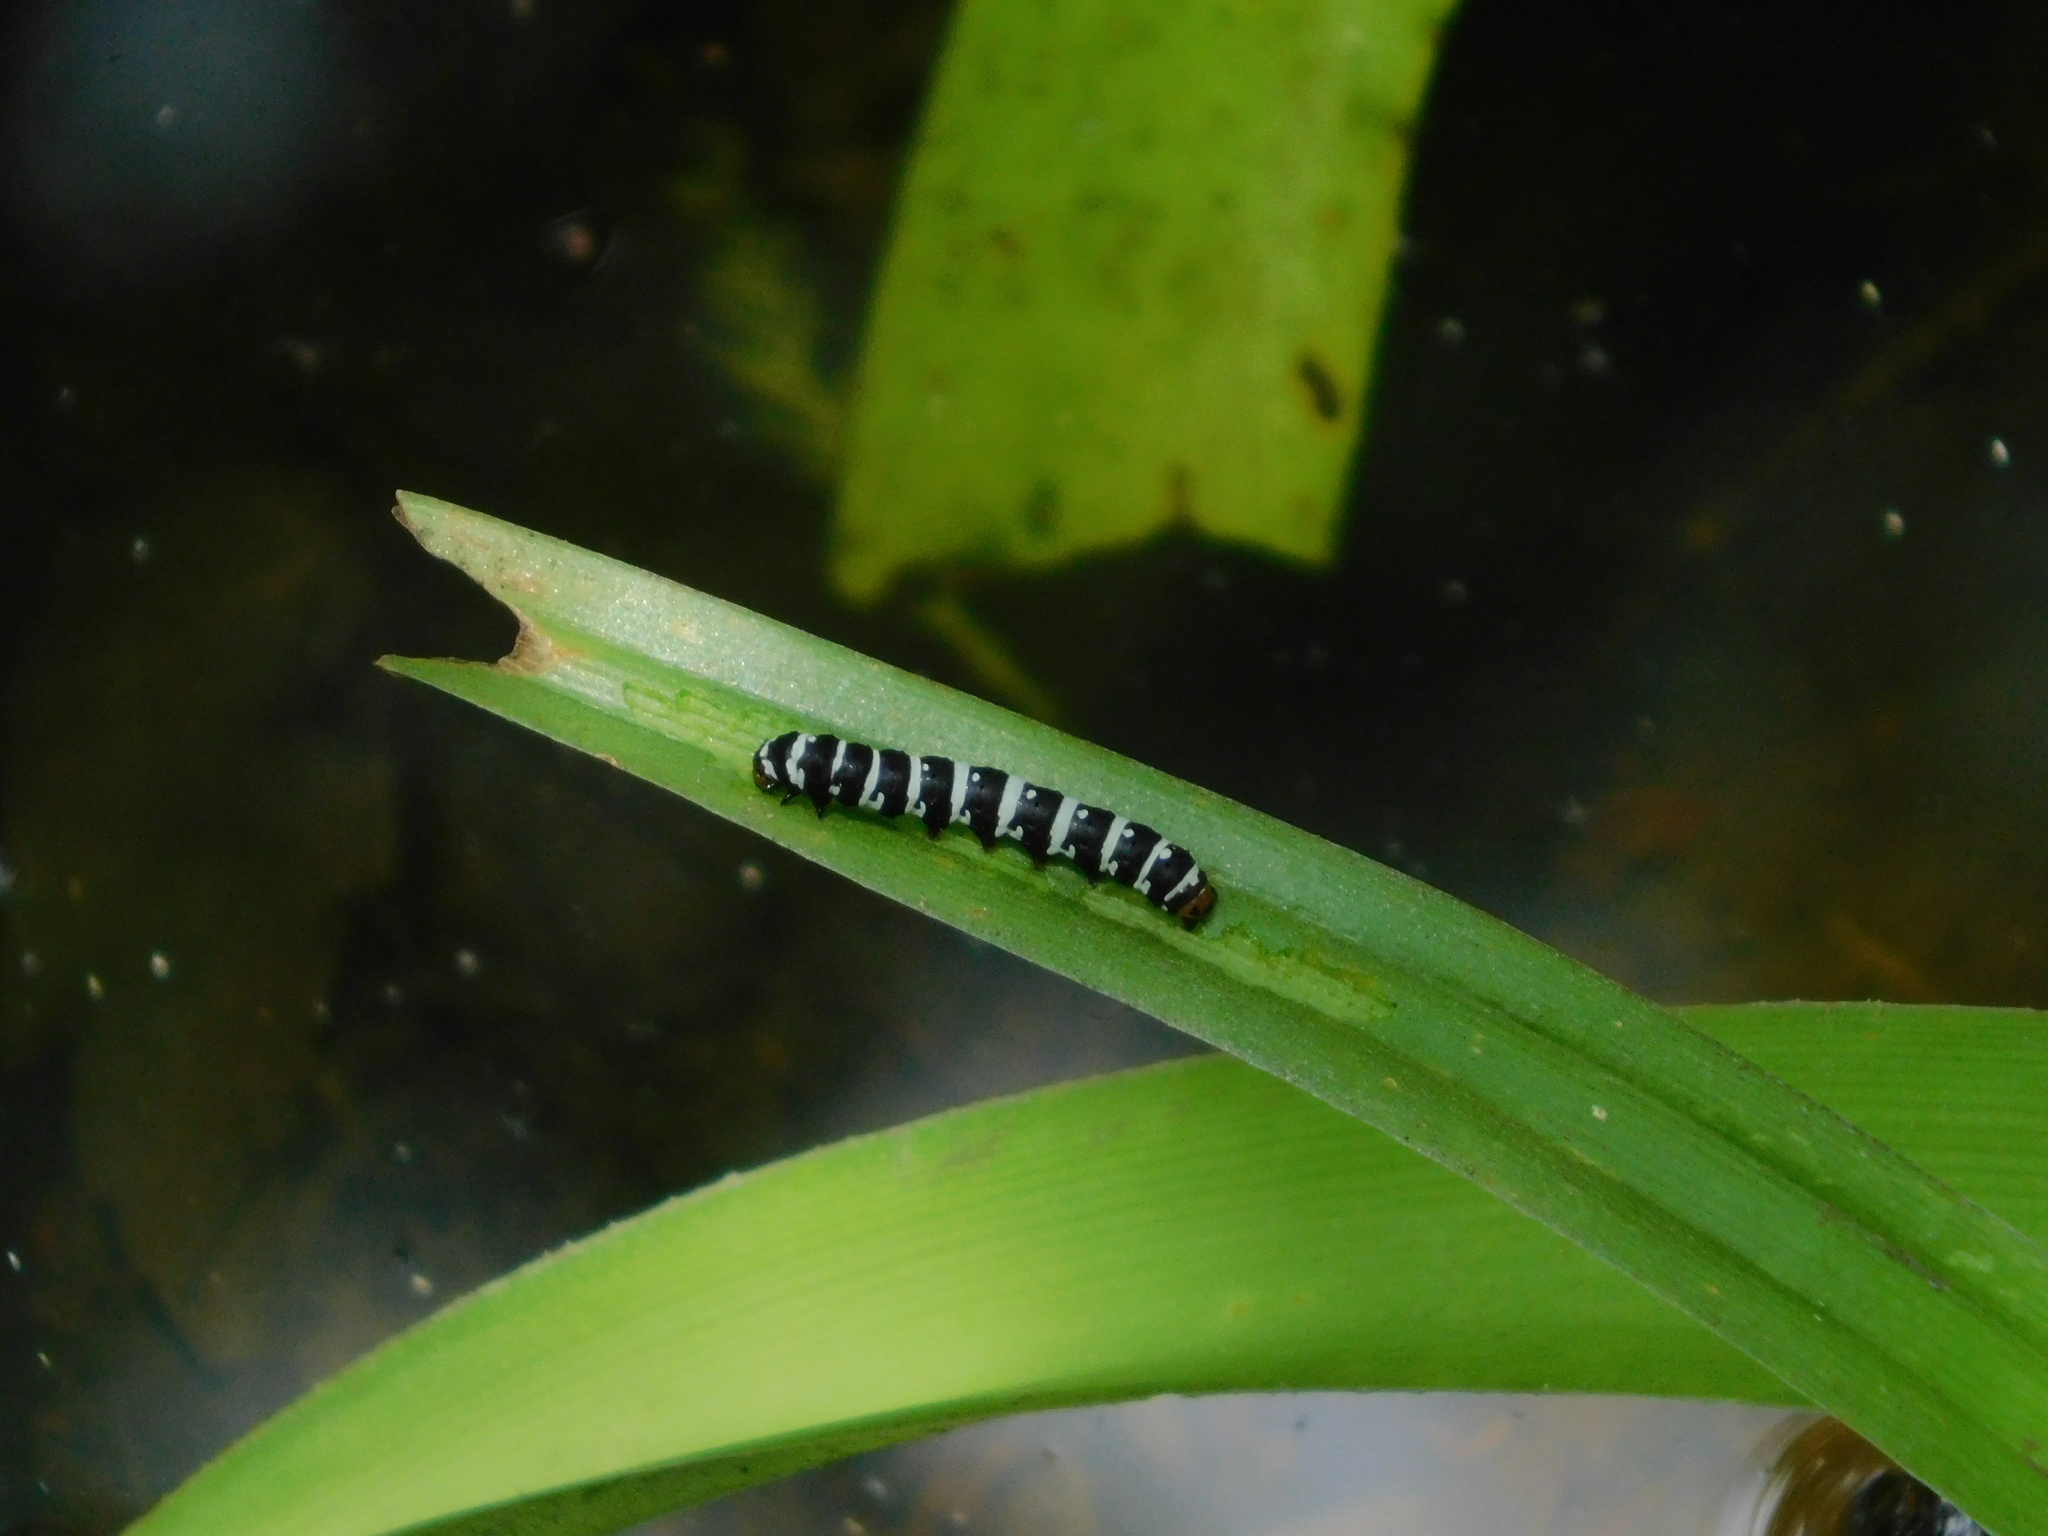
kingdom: Animalia
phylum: Arthropoda
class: Insecta
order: Lepidoptera
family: Noctuidae
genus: Xanthopastis
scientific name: Xanthopastis regnatrix
